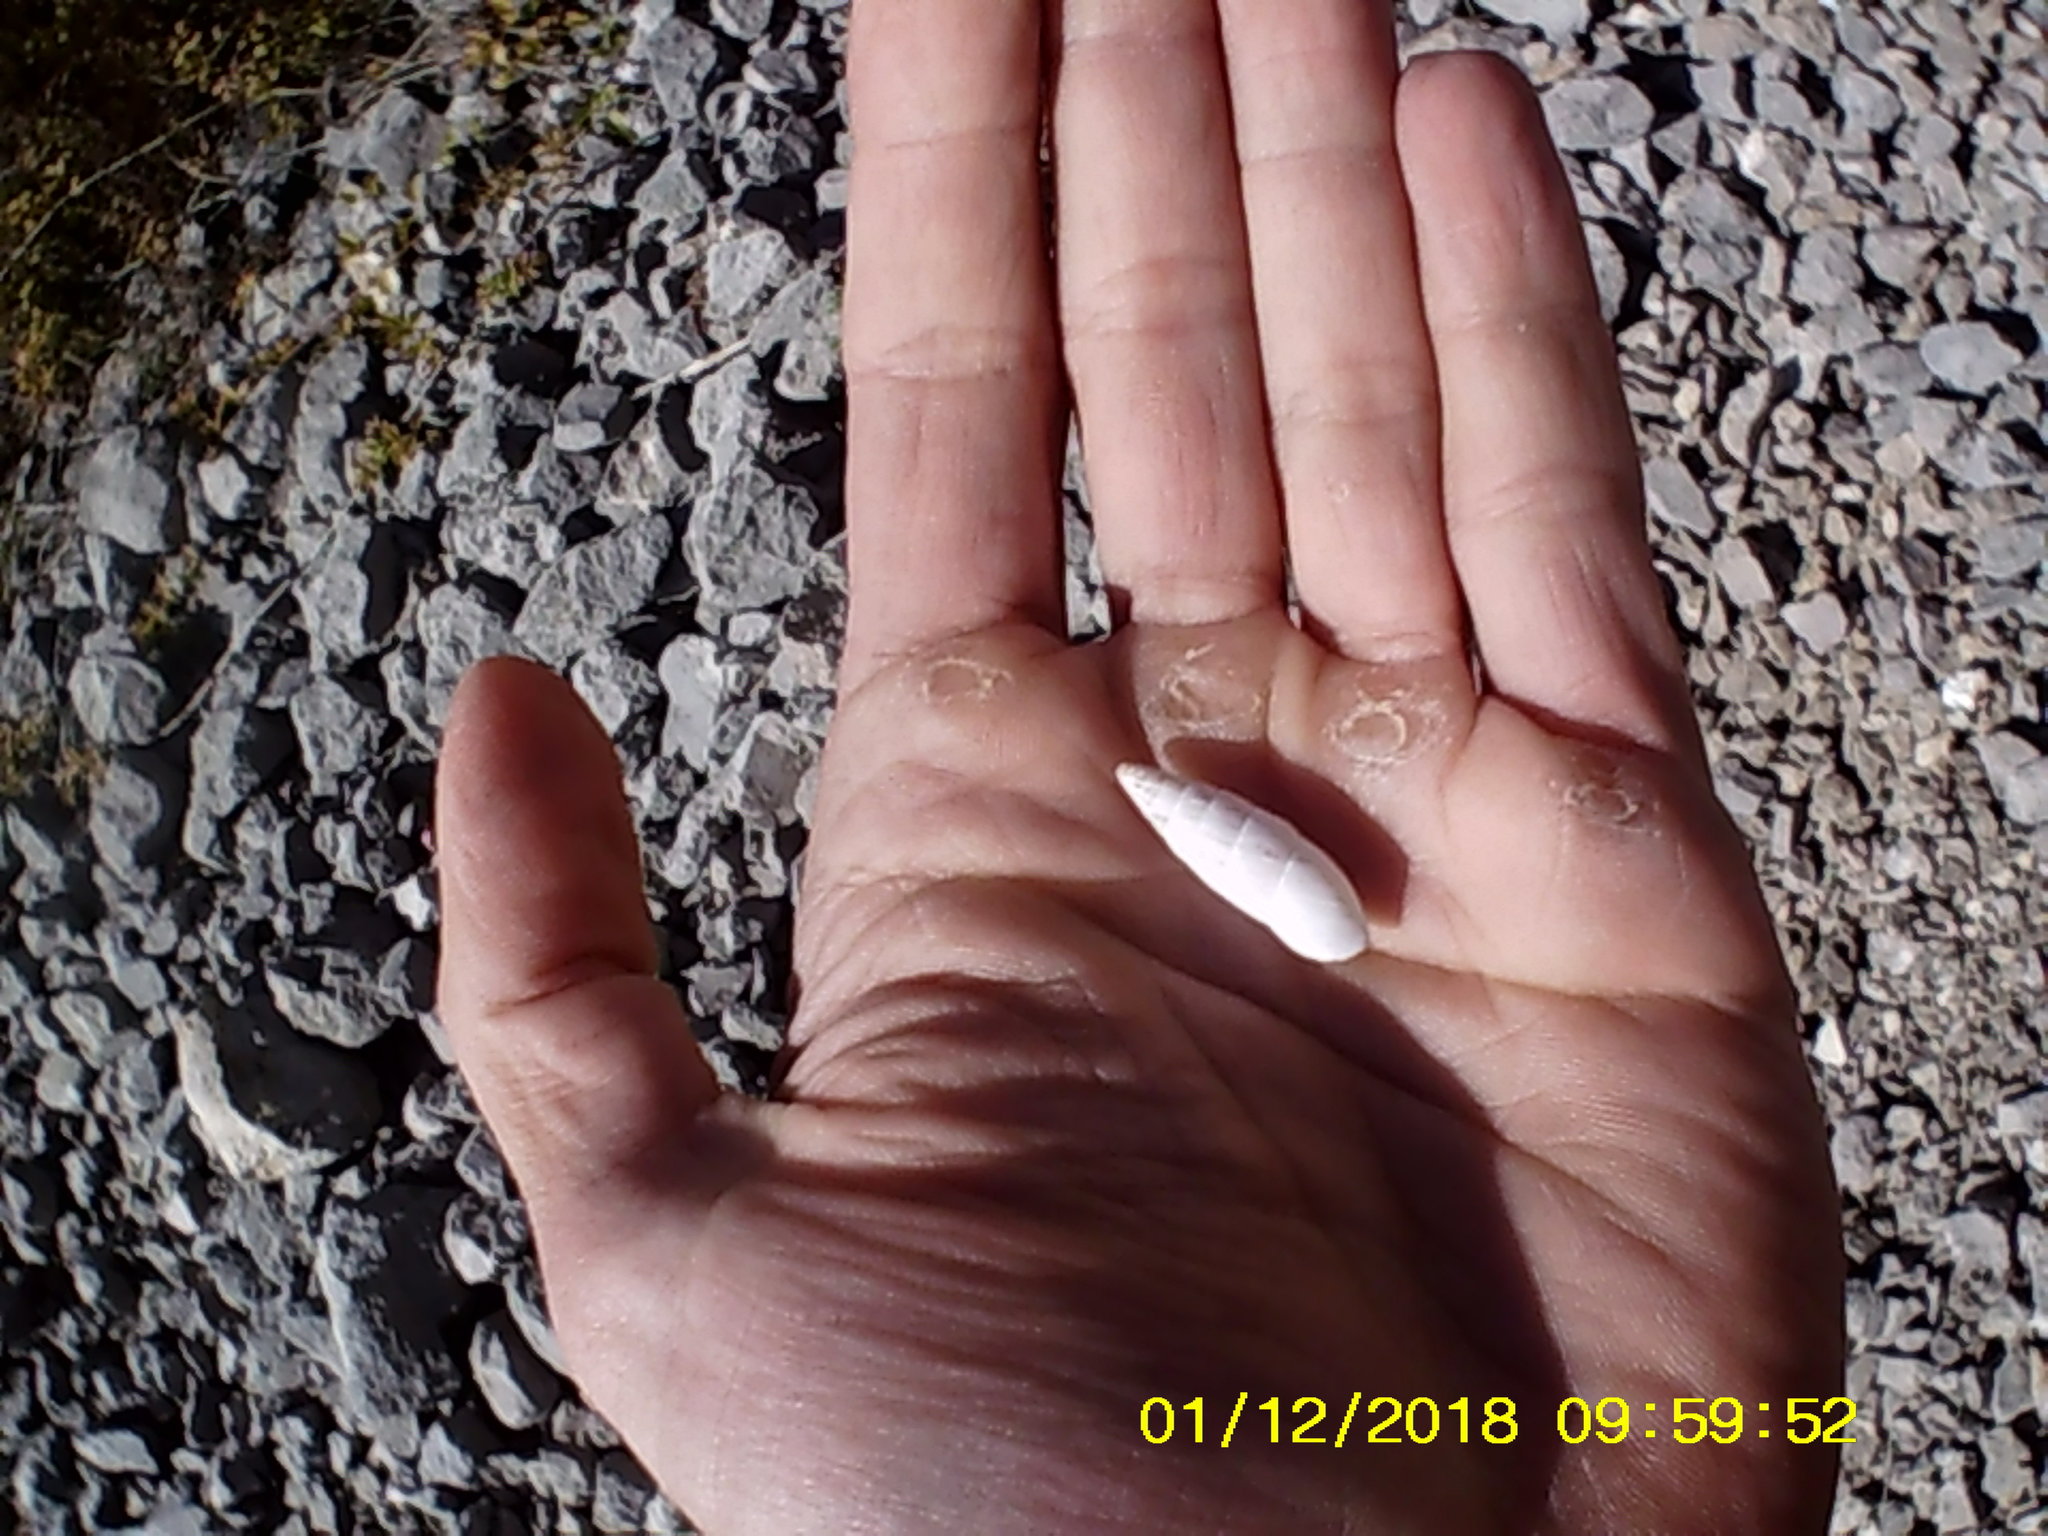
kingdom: Animalia
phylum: Mollusca
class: Gastropoda
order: Stylommatophora
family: Enidae
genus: Brephulopsis
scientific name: Brephulopsis cylindrica
